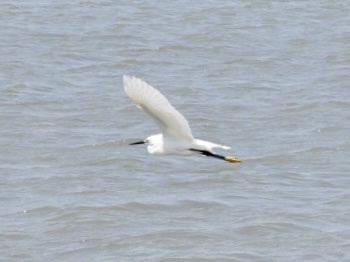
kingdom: Animalia
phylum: Chordata
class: Aves
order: Pelecaniformes
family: Ardeidae
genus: Egretta
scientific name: Egretta thula
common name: Snowy egret
